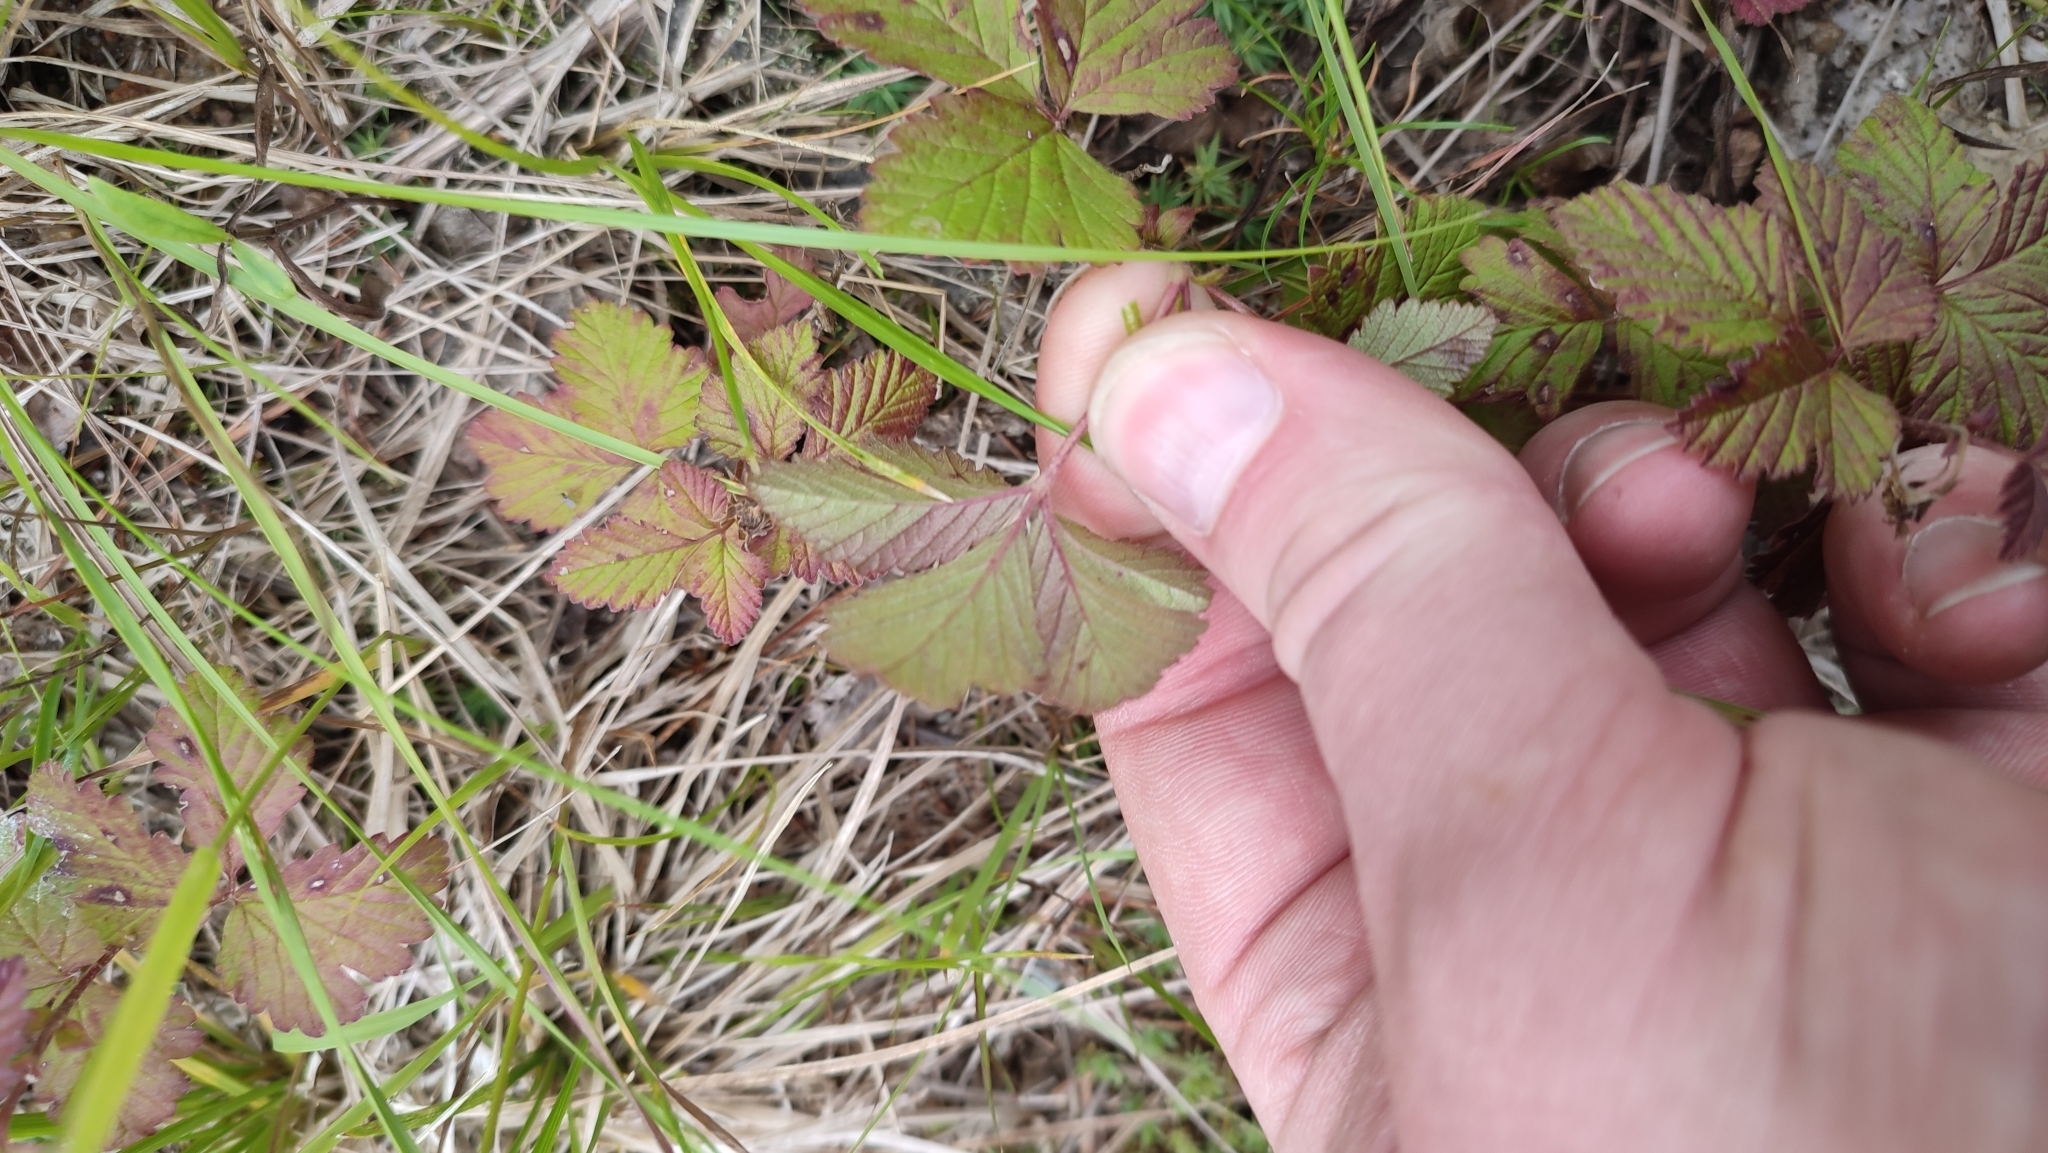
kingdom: Plantae
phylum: Tracheophyta
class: Magnoliopsida
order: Rosales
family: Rosaceae
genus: Rubus
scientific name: Rubus arcticus
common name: Arctic bramble
